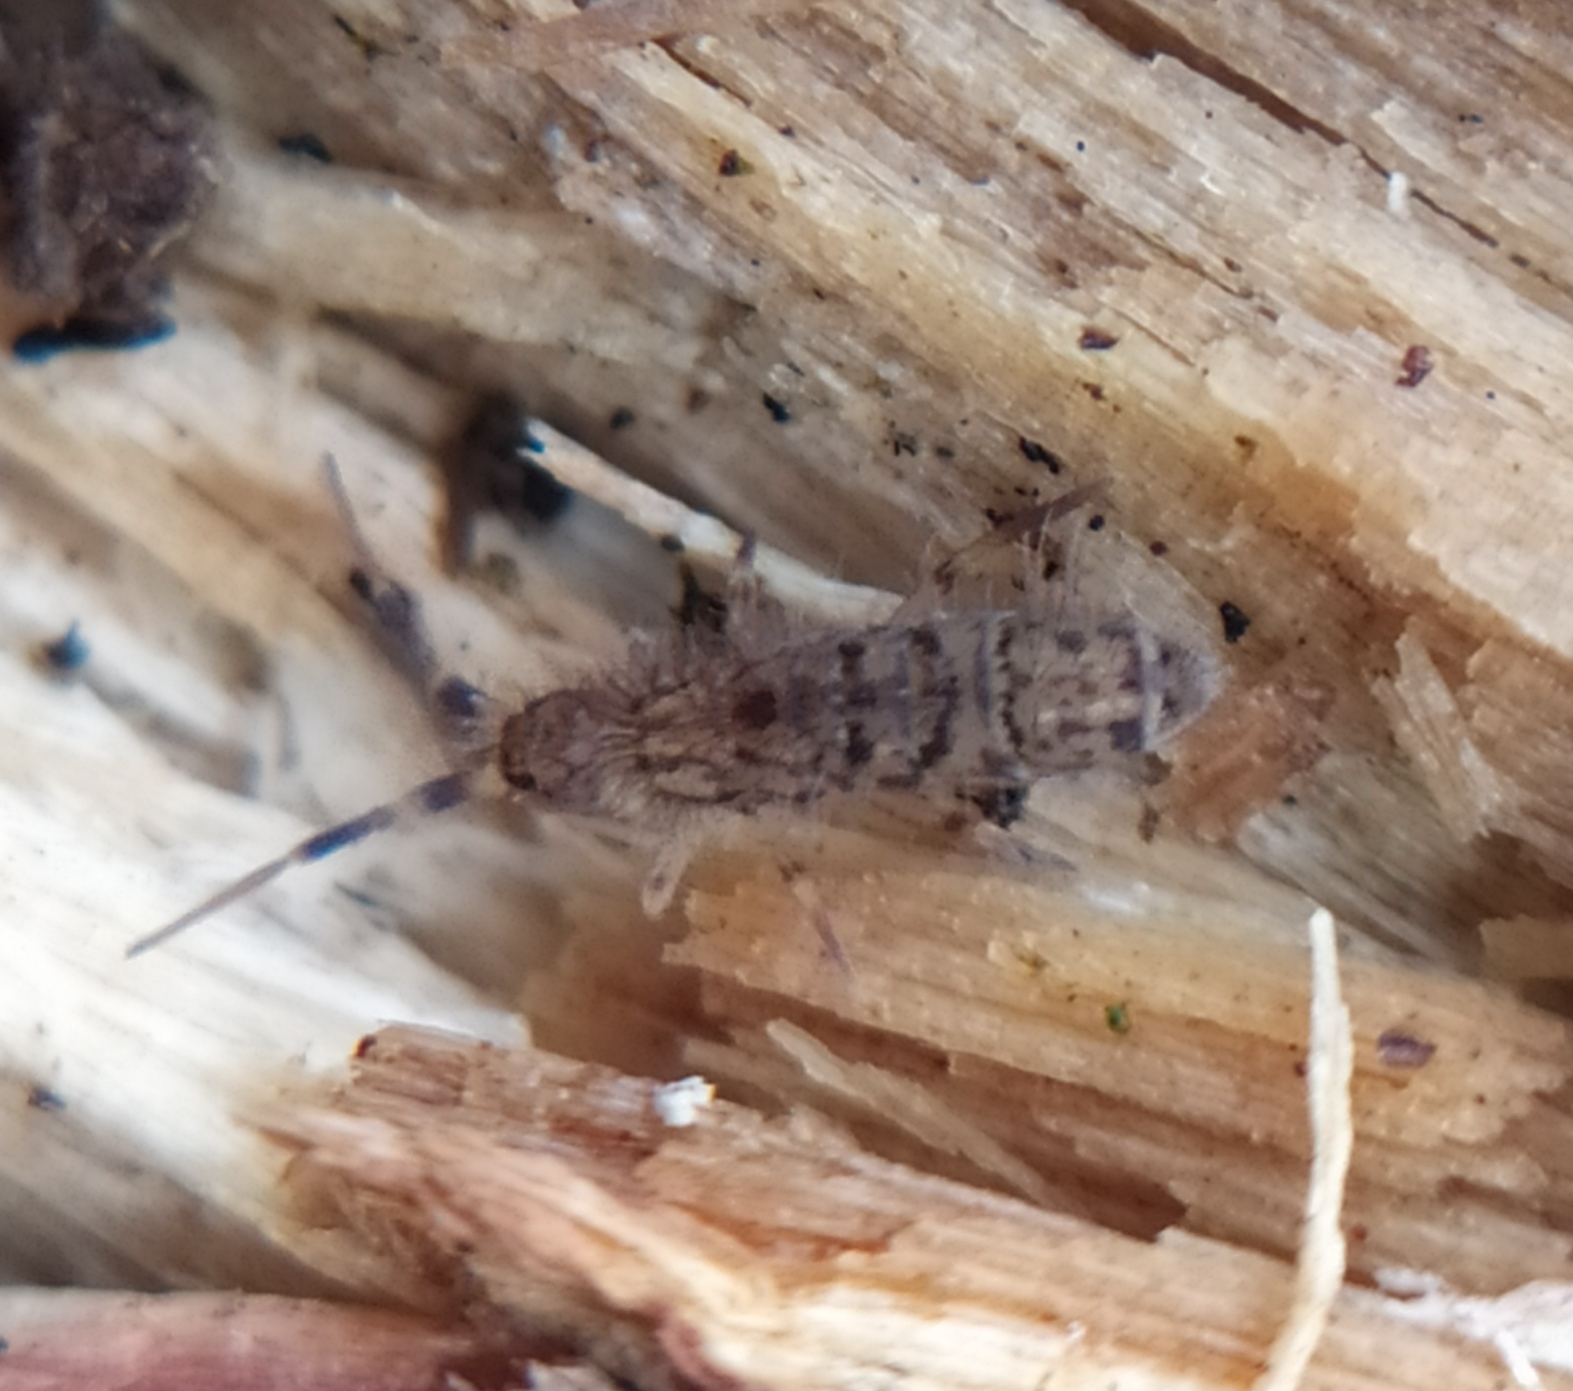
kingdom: Animalia
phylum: Arthropoda
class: Collembola
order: Entomobryomorpha
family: Orchesellidae
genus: Orchesella
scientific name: Orchesella villosa
